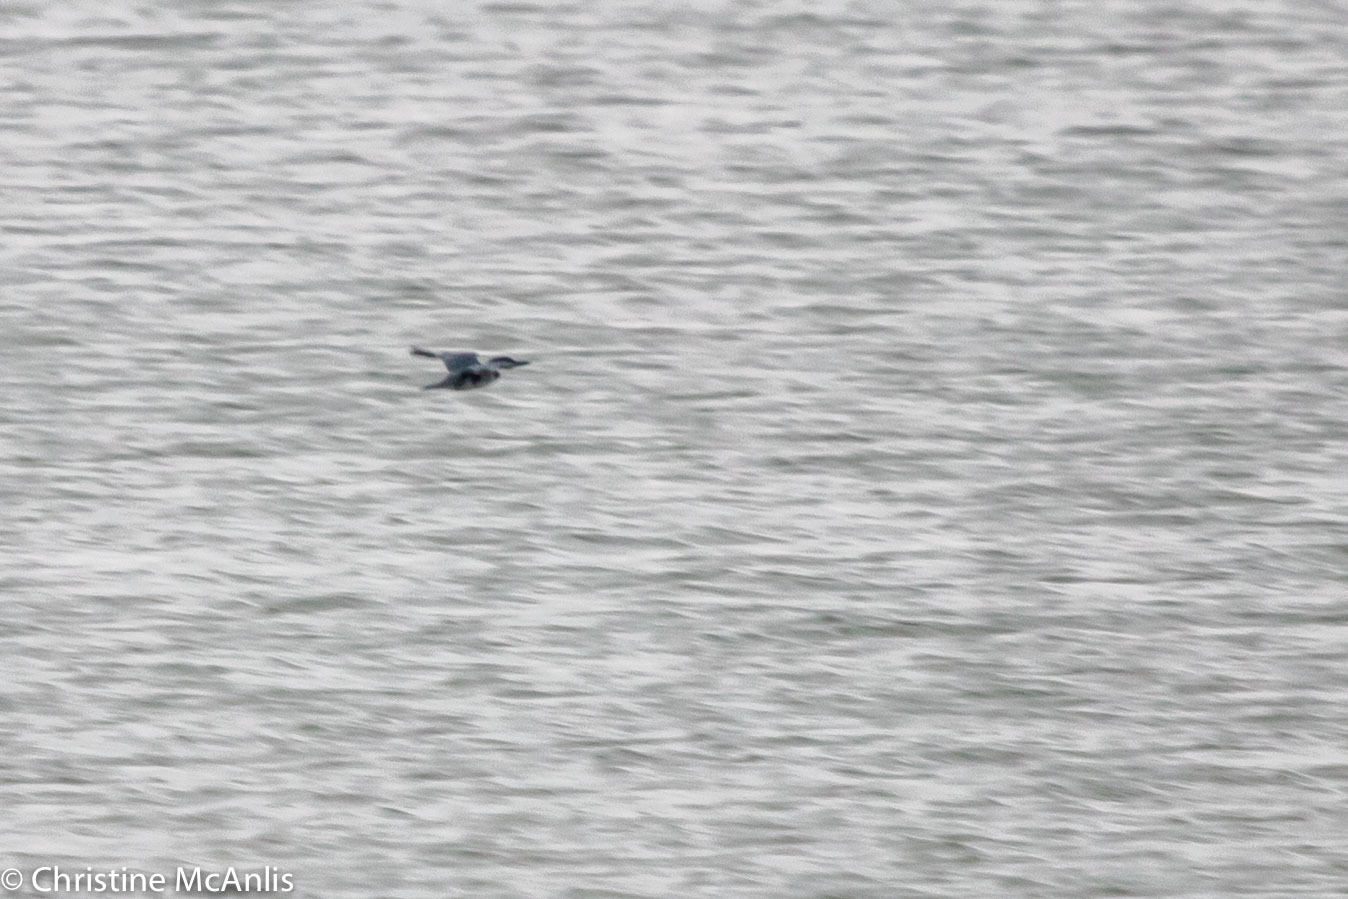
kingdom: Animalia
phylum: Chordata
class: Aves
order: Coraciiformes
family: Alcedinidae
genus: Megaceryle
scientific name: Megaceryle alcyon
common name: Belted kingfisher
